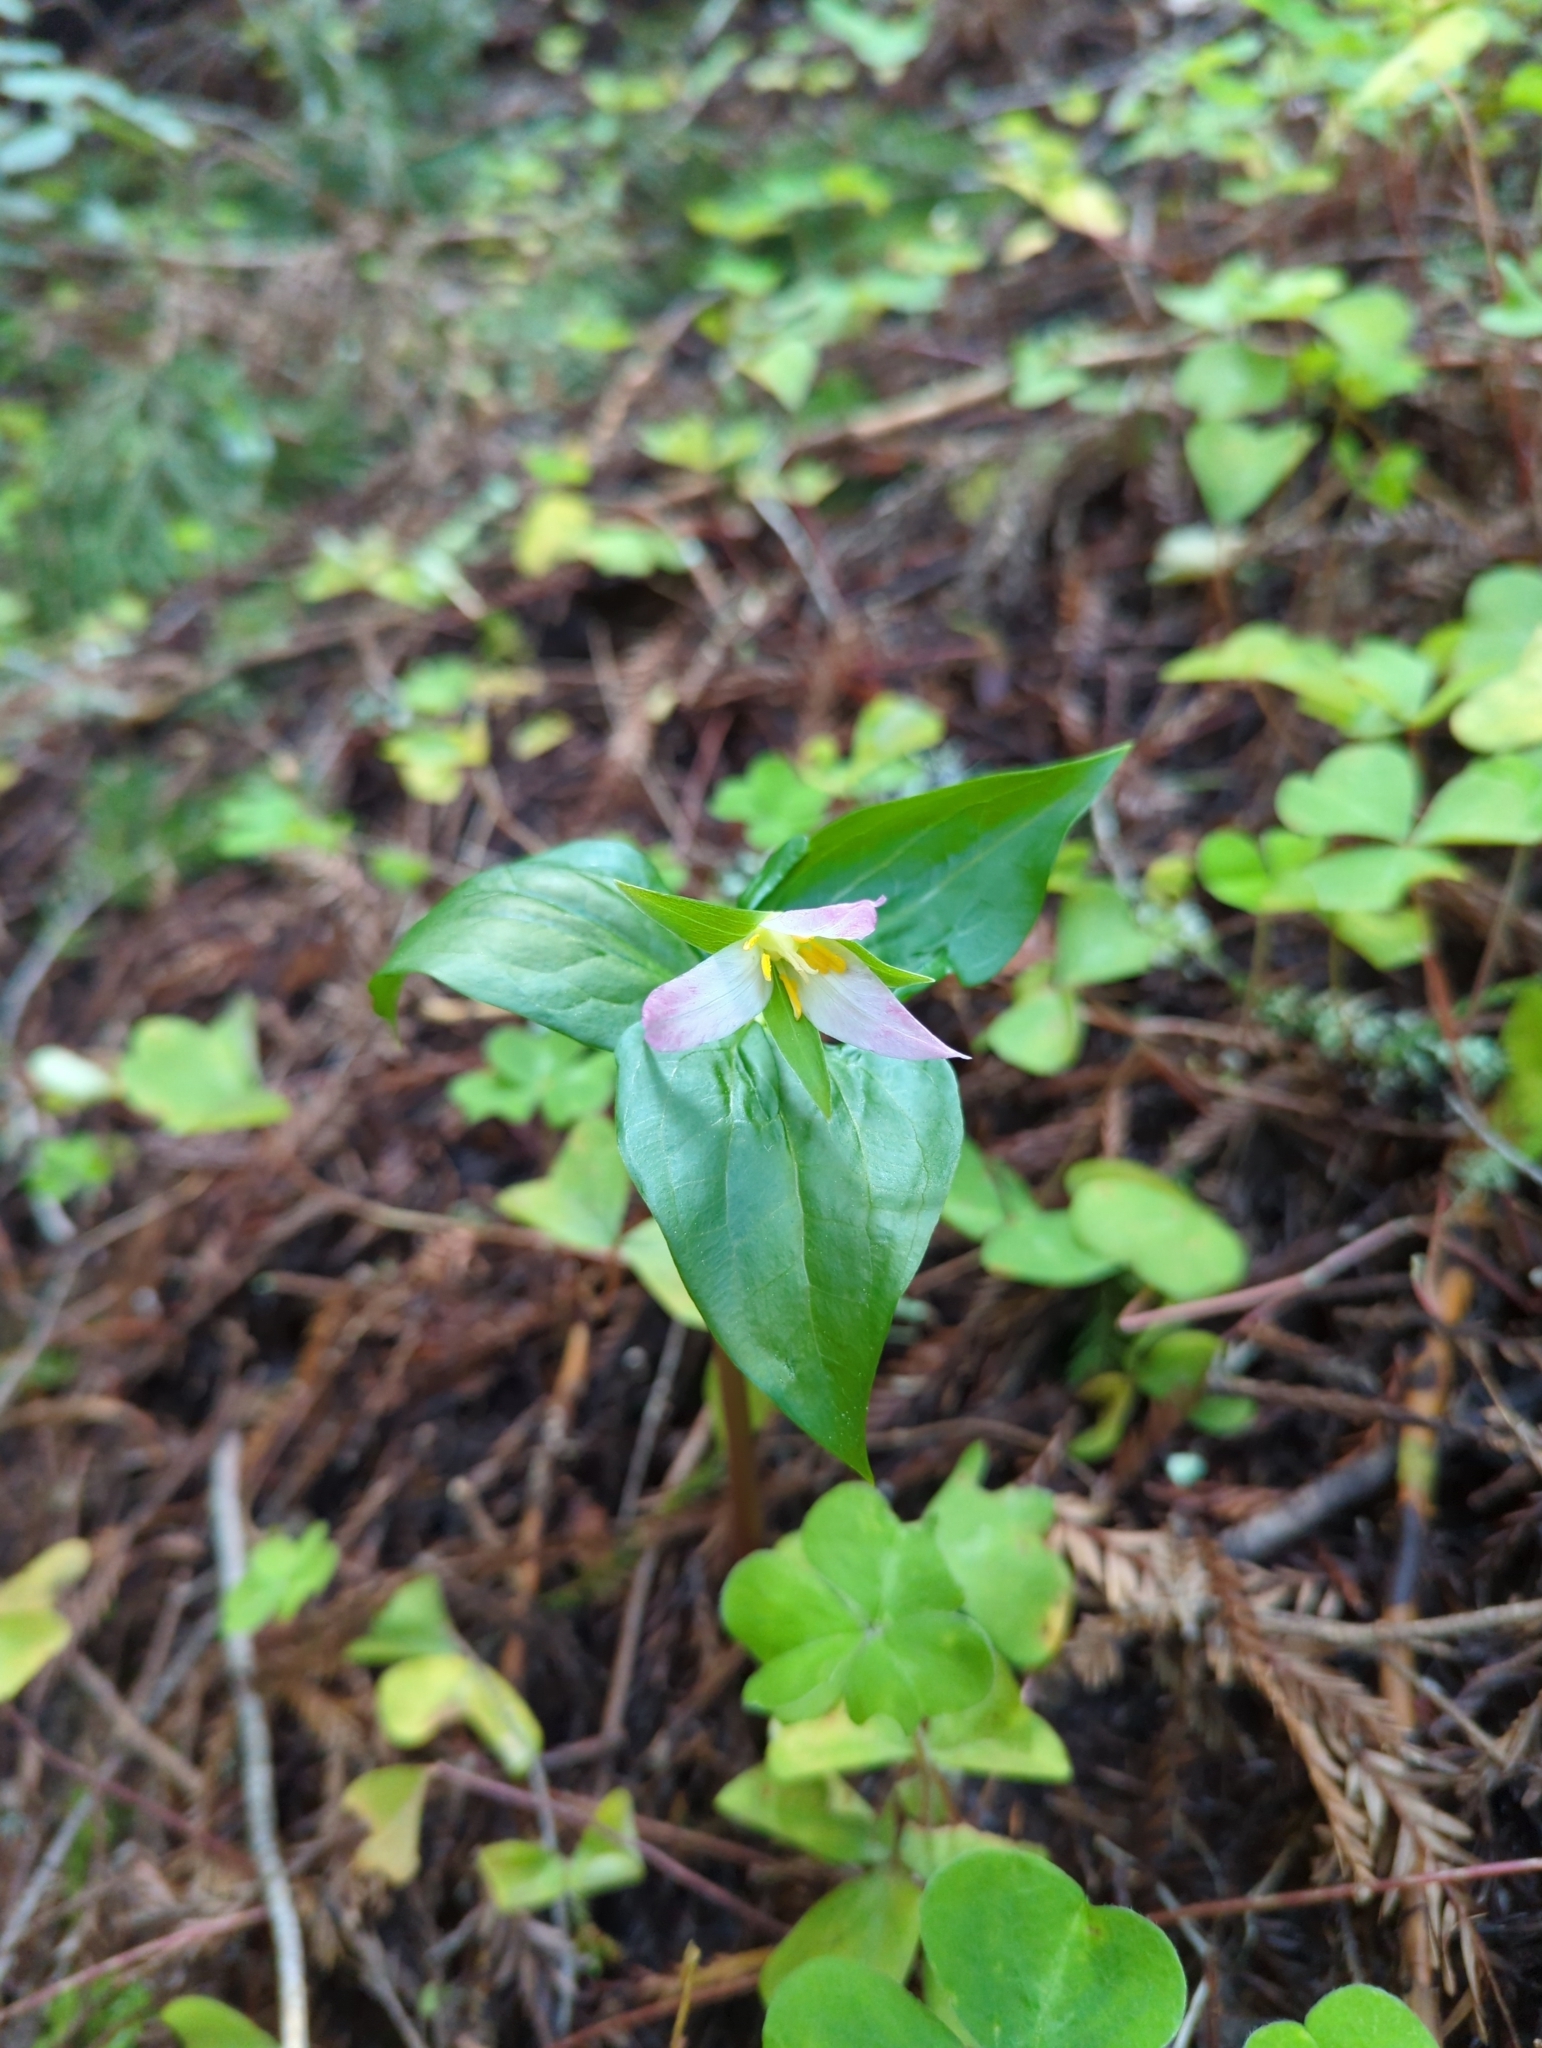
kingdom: Plantae
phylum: Tracheophyta
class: Liliopsida
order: Liliales
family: Melanthiaceae
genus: Trillium
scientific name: Trillium ovatum
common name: Pacific trillium
